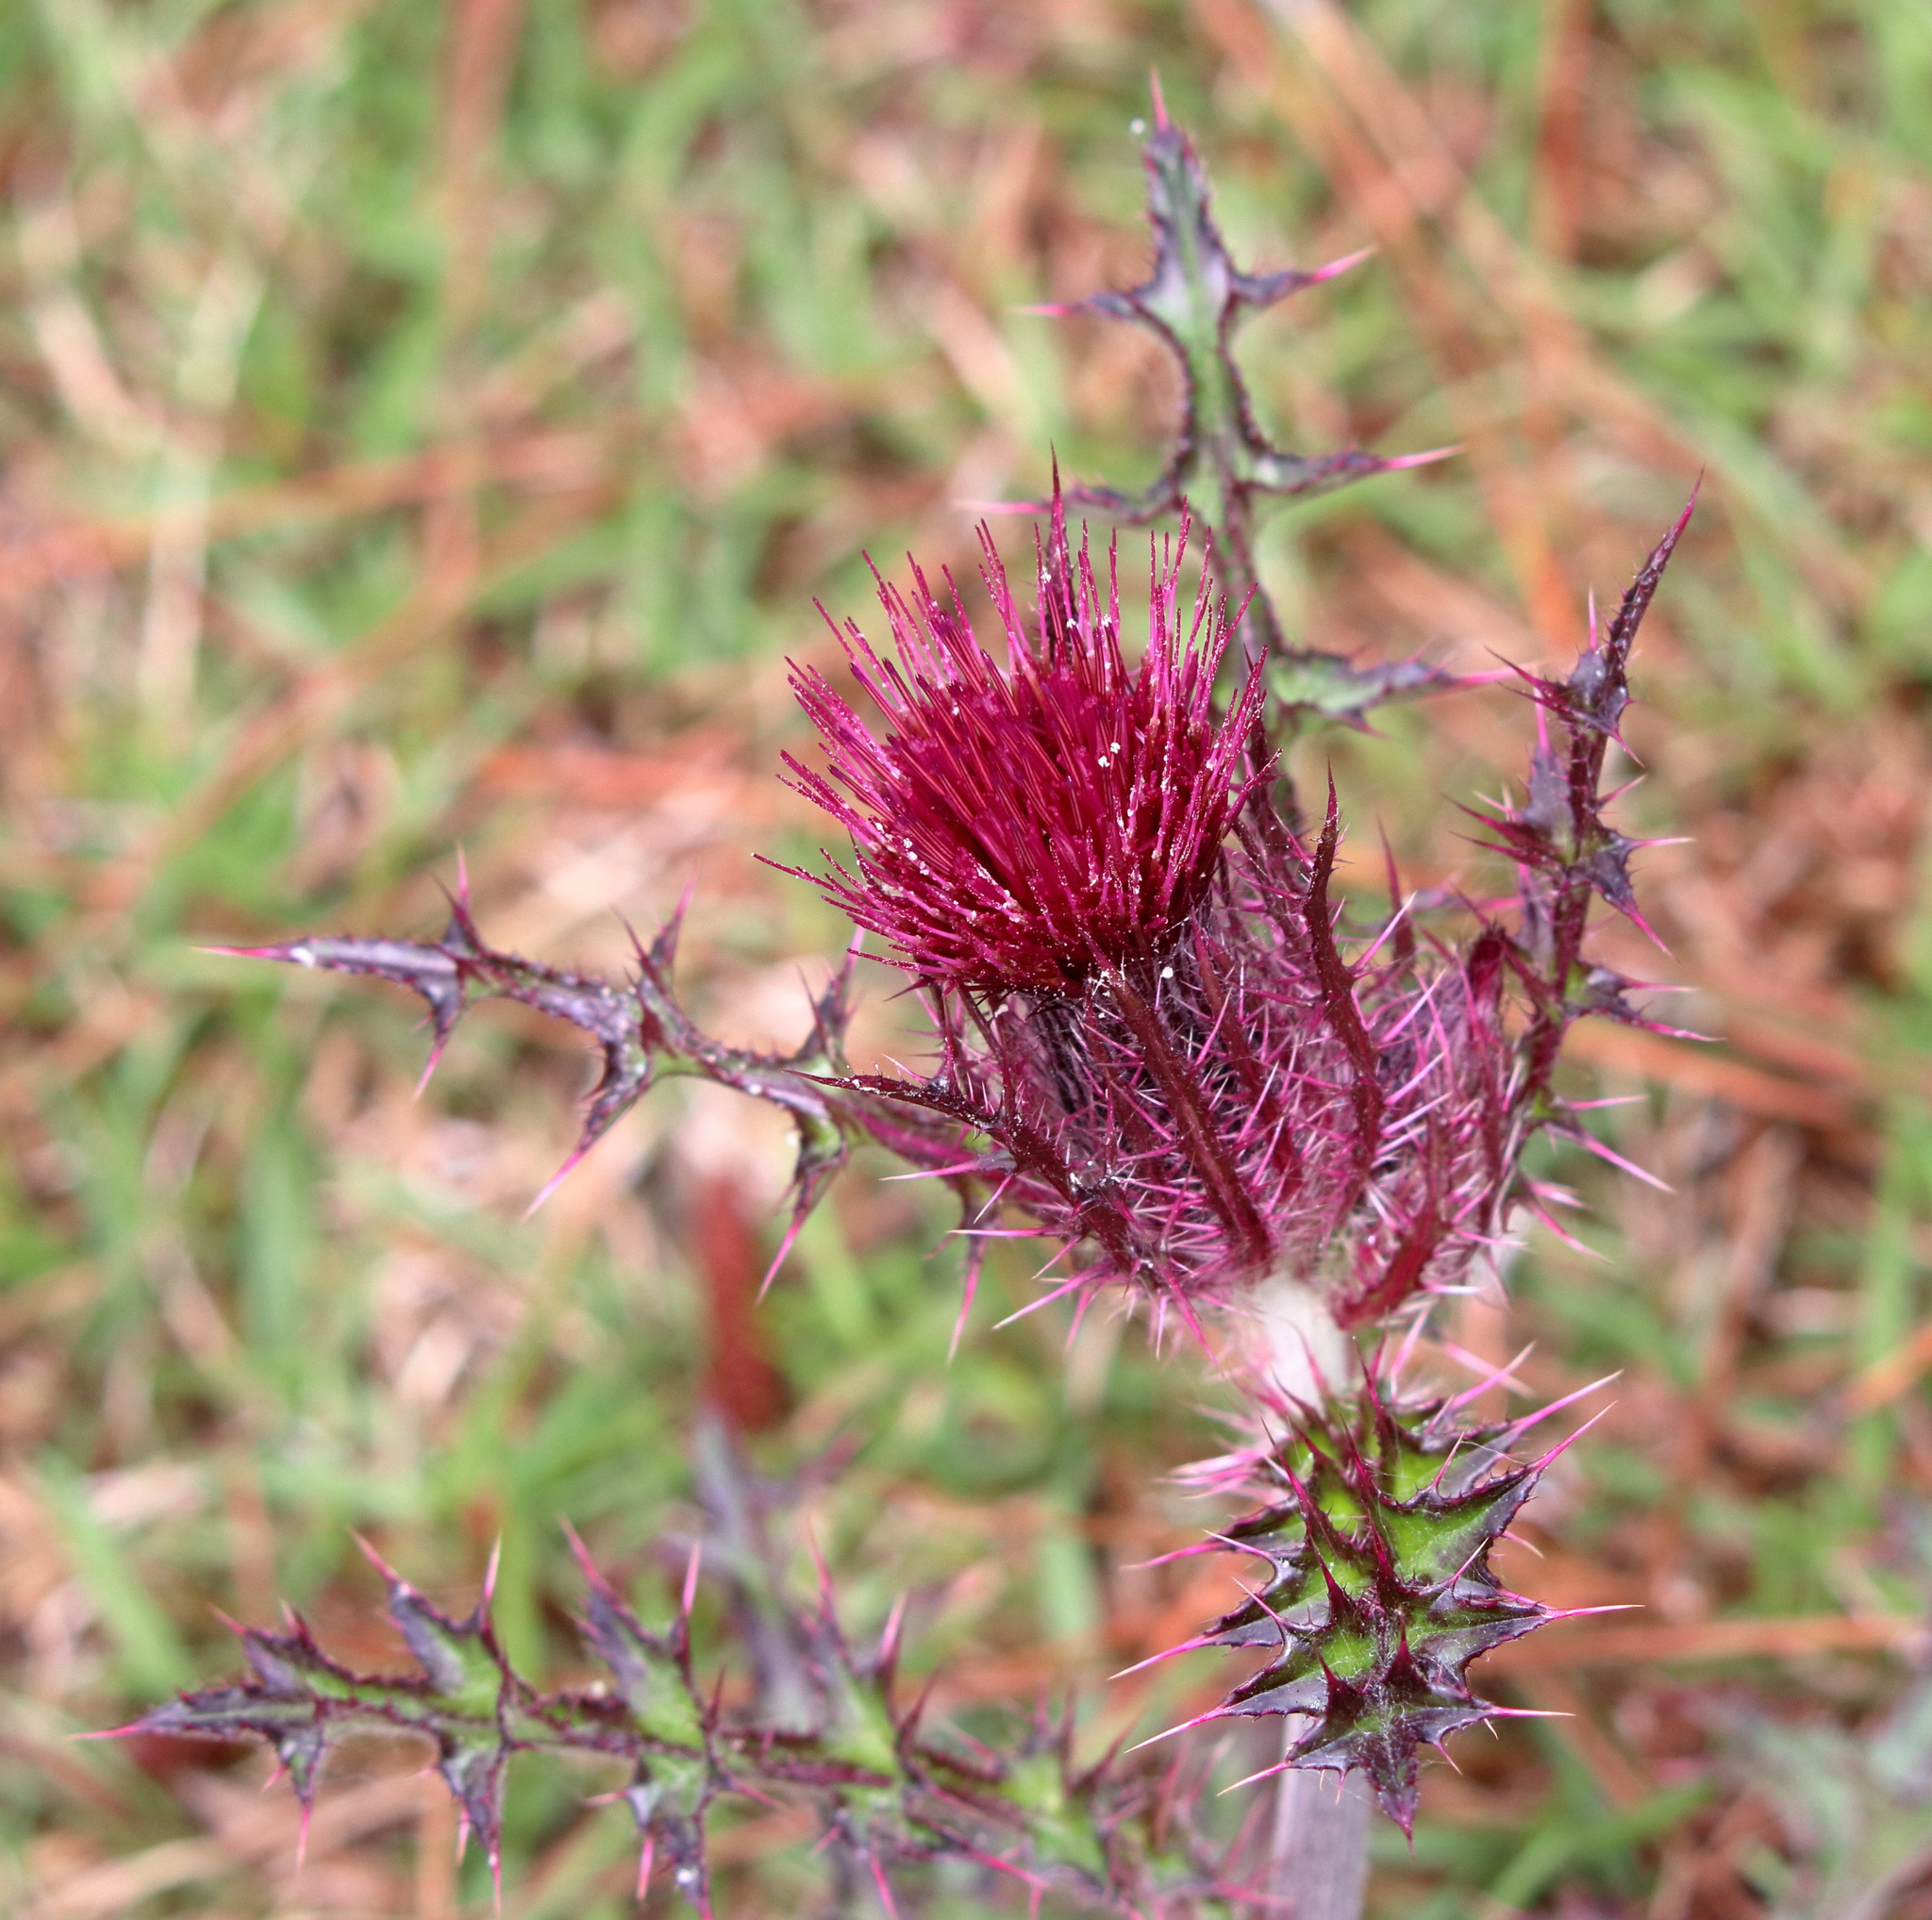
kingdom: Plantae
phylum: Tracheophyta
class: Magnoliopsida
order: Asterales
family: Asteraceae
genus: Cirsium
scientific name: Cirsium horridulum
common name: Bristly thistle
